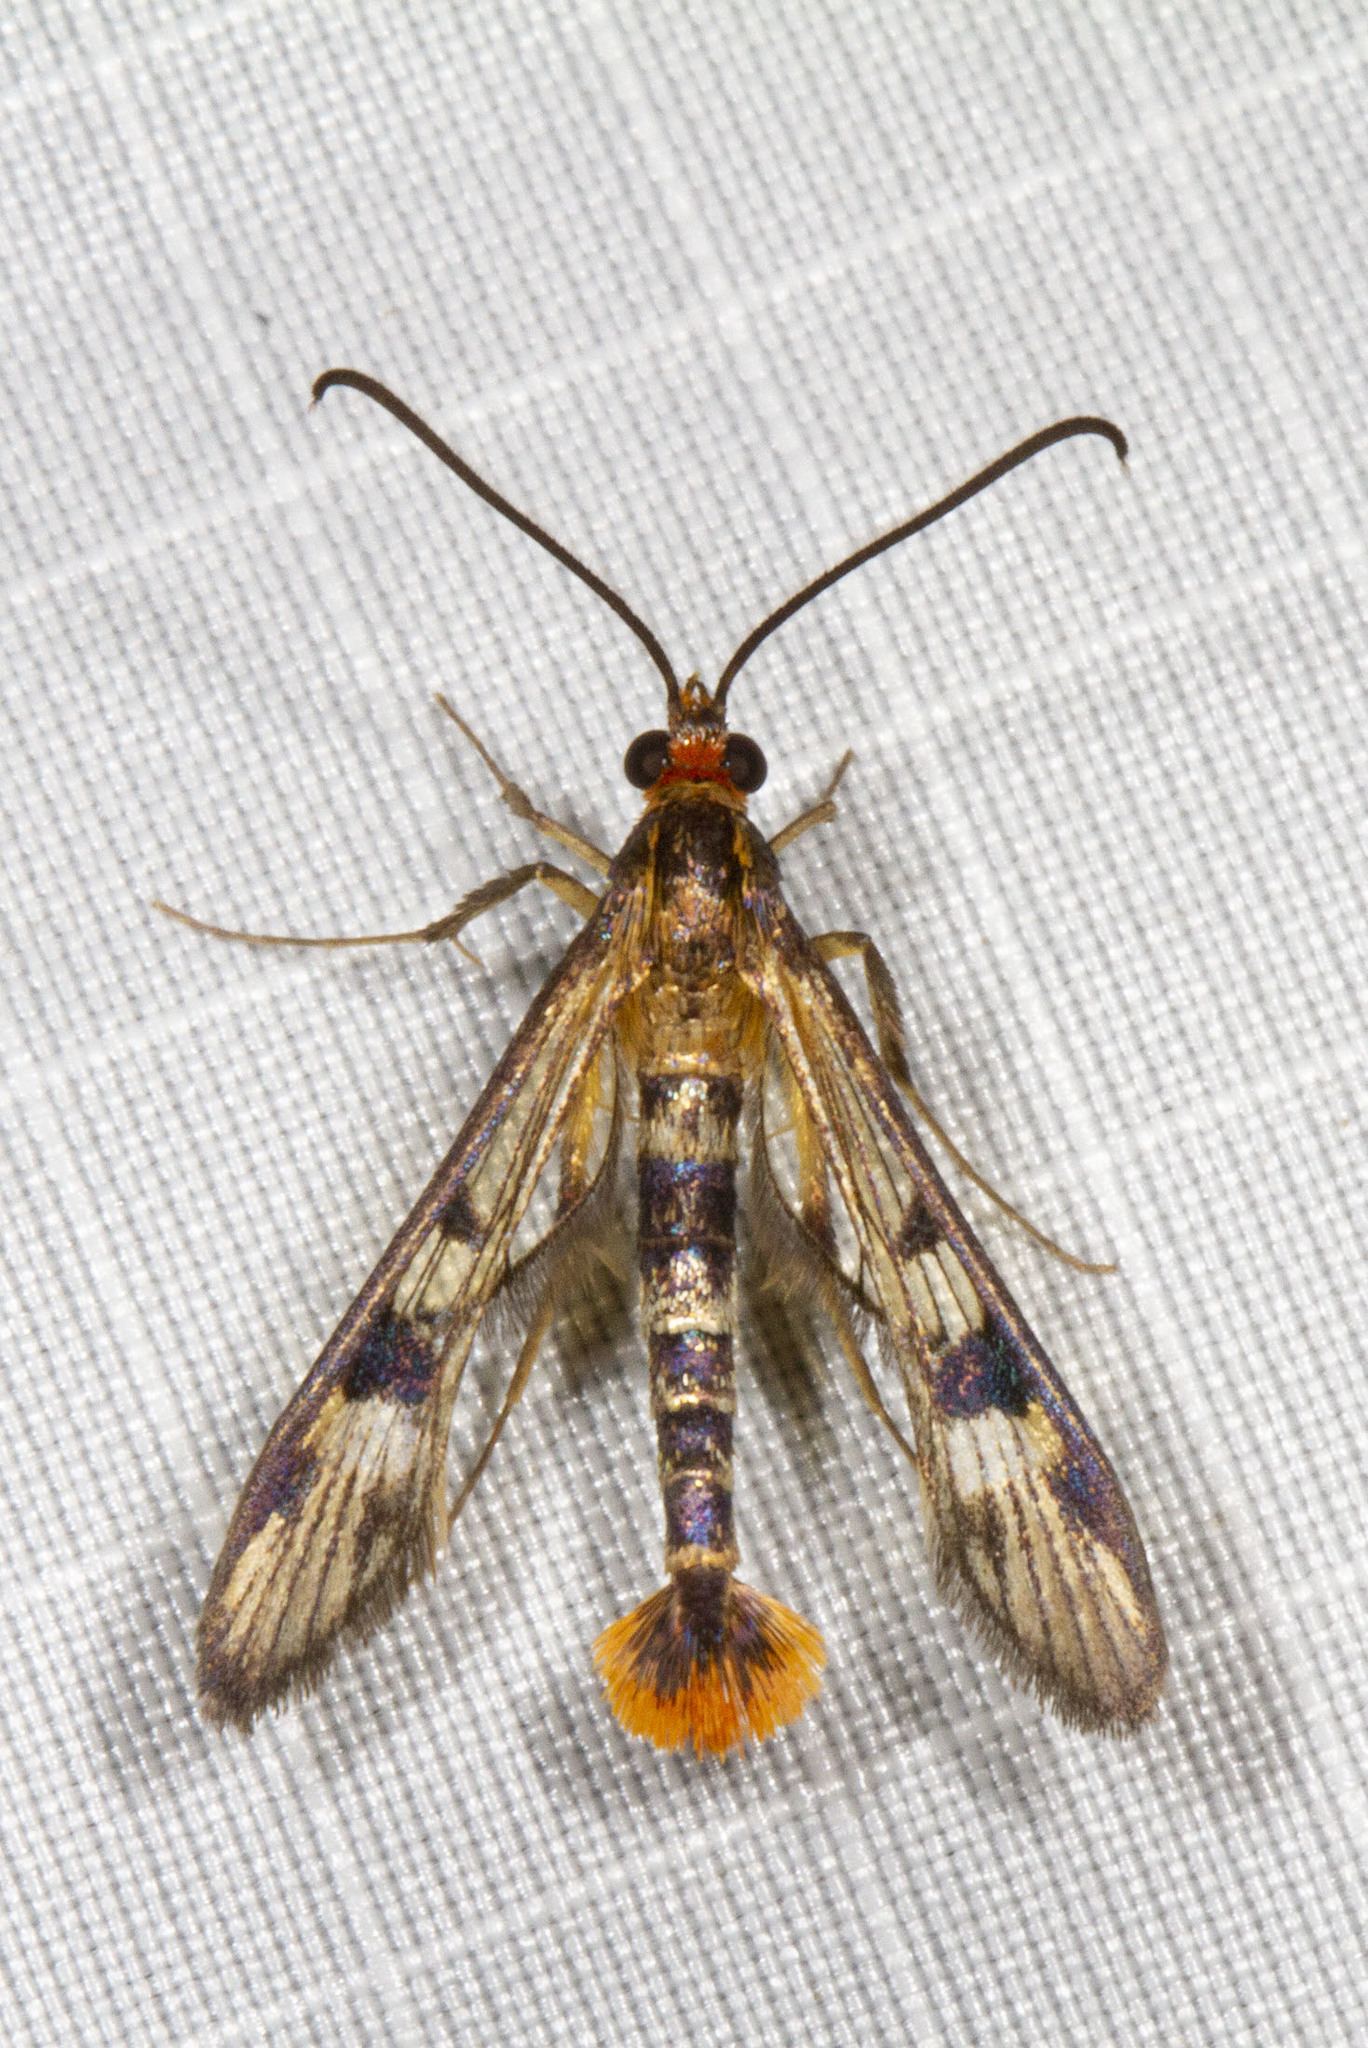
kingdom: Animalia
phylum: Arthropoda
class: Insecta
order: Lepidoptera
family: Sesiidae
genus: Synanthedon
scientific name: Synanthedon acerni
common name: Maple callus borer moth
